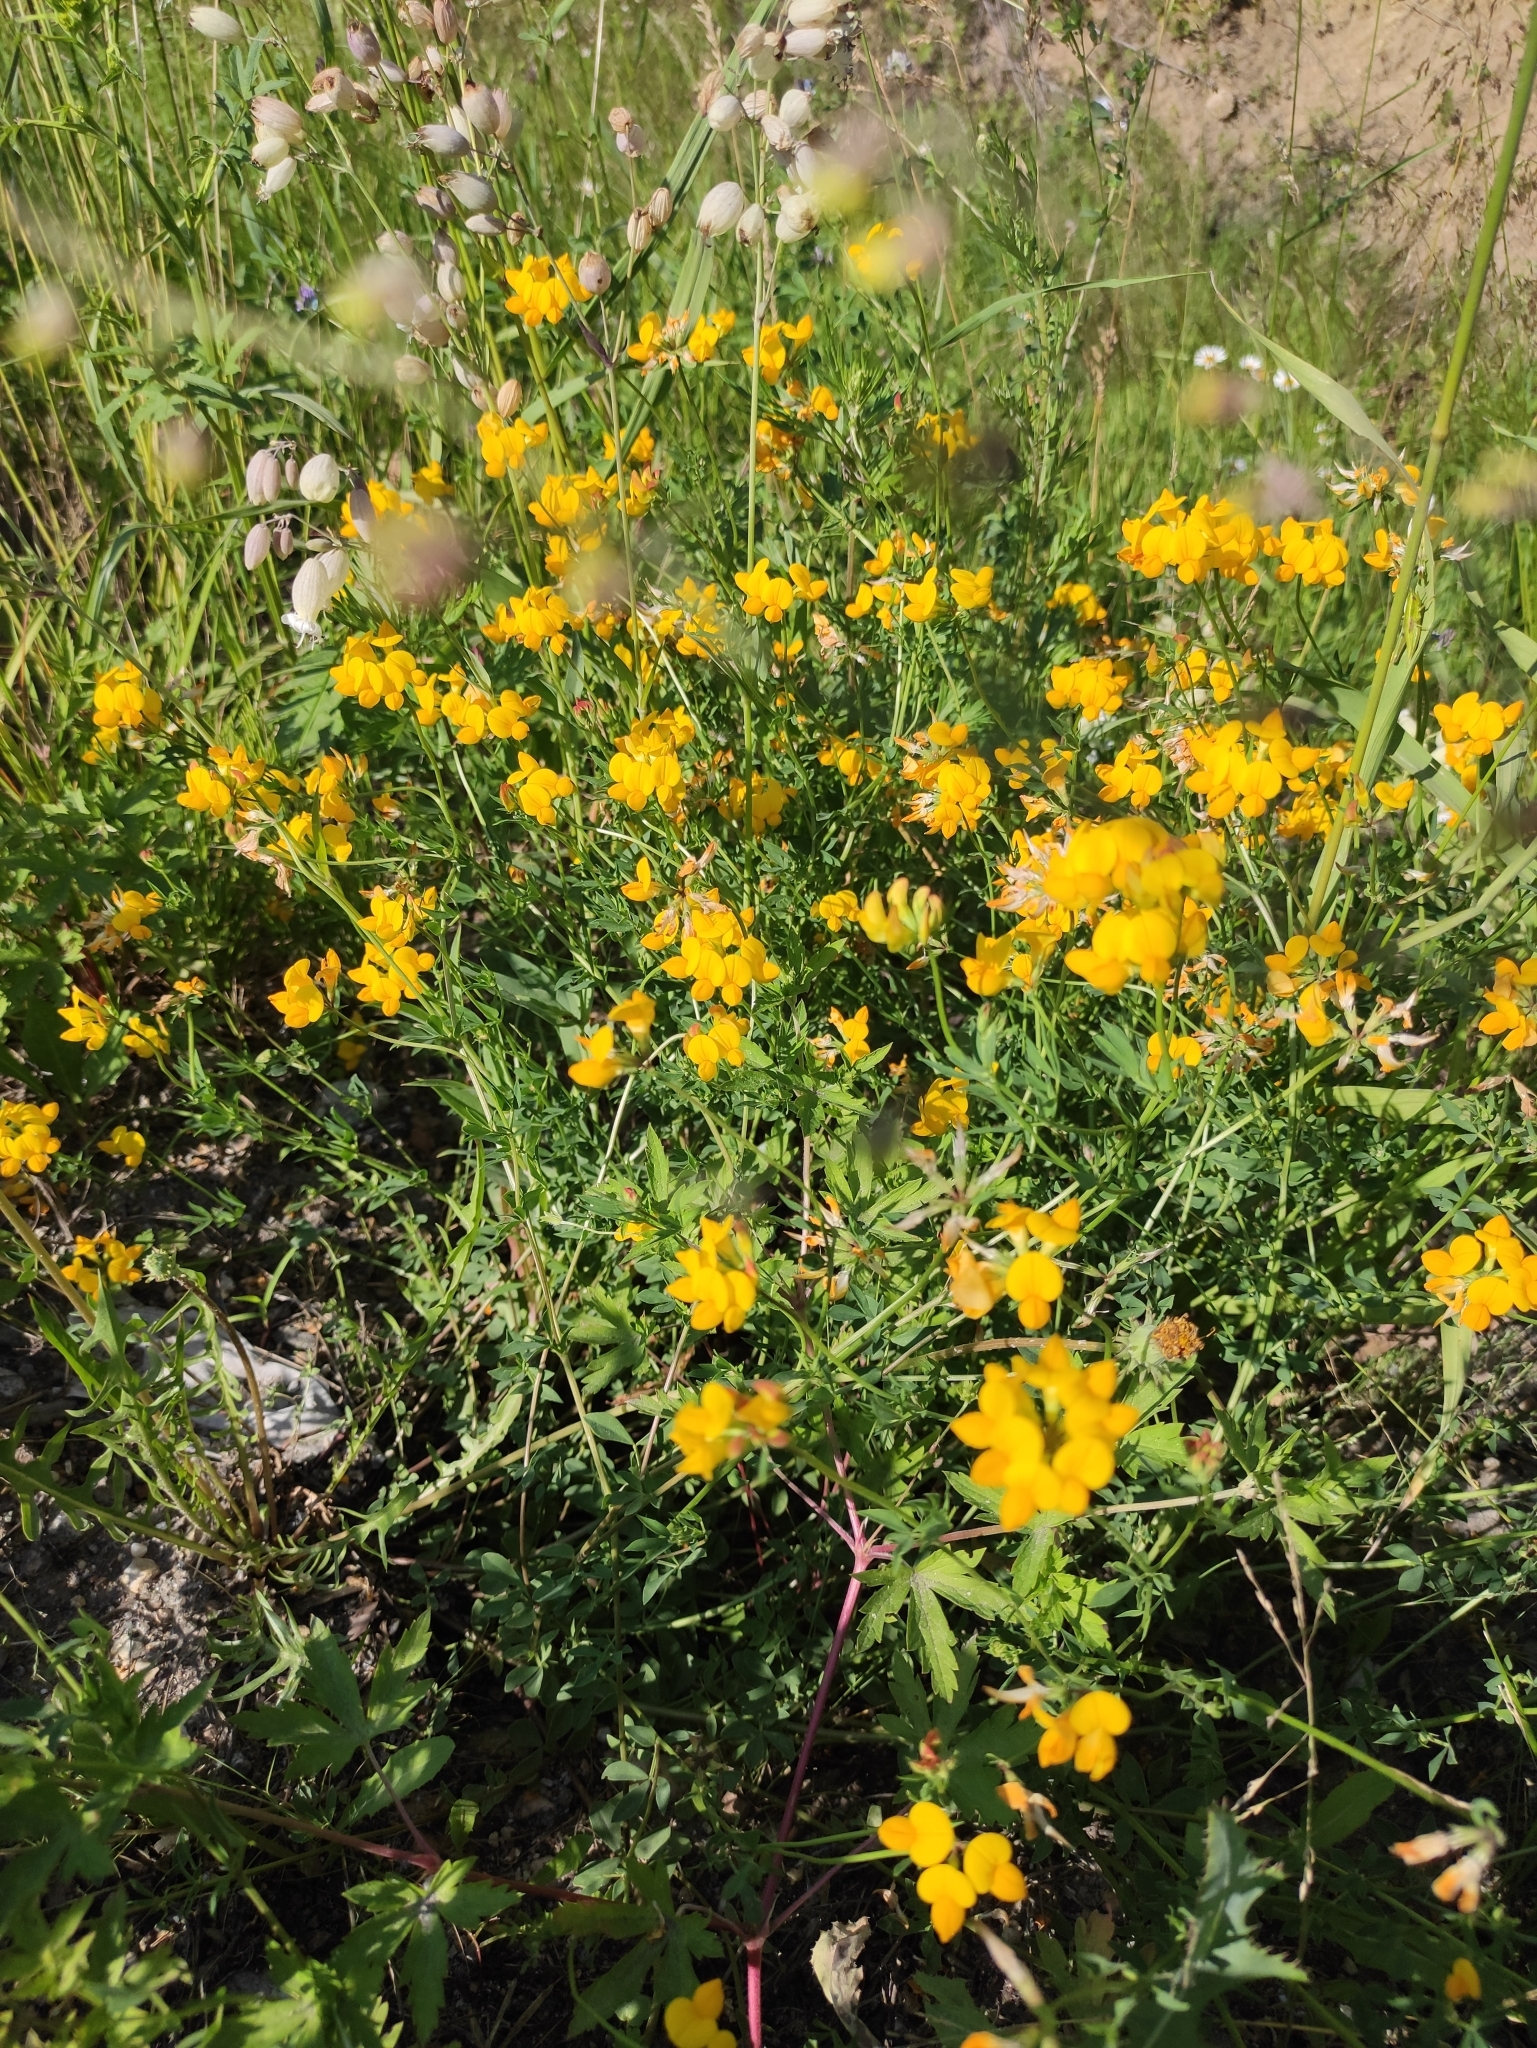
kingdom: Plantae
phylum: Tracheophyta
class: Magnoliopsida
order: Fabales
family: Fabaceae
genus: Lotus
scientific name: Lotus corniculatus
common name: Common bird's-foot-trefoil
